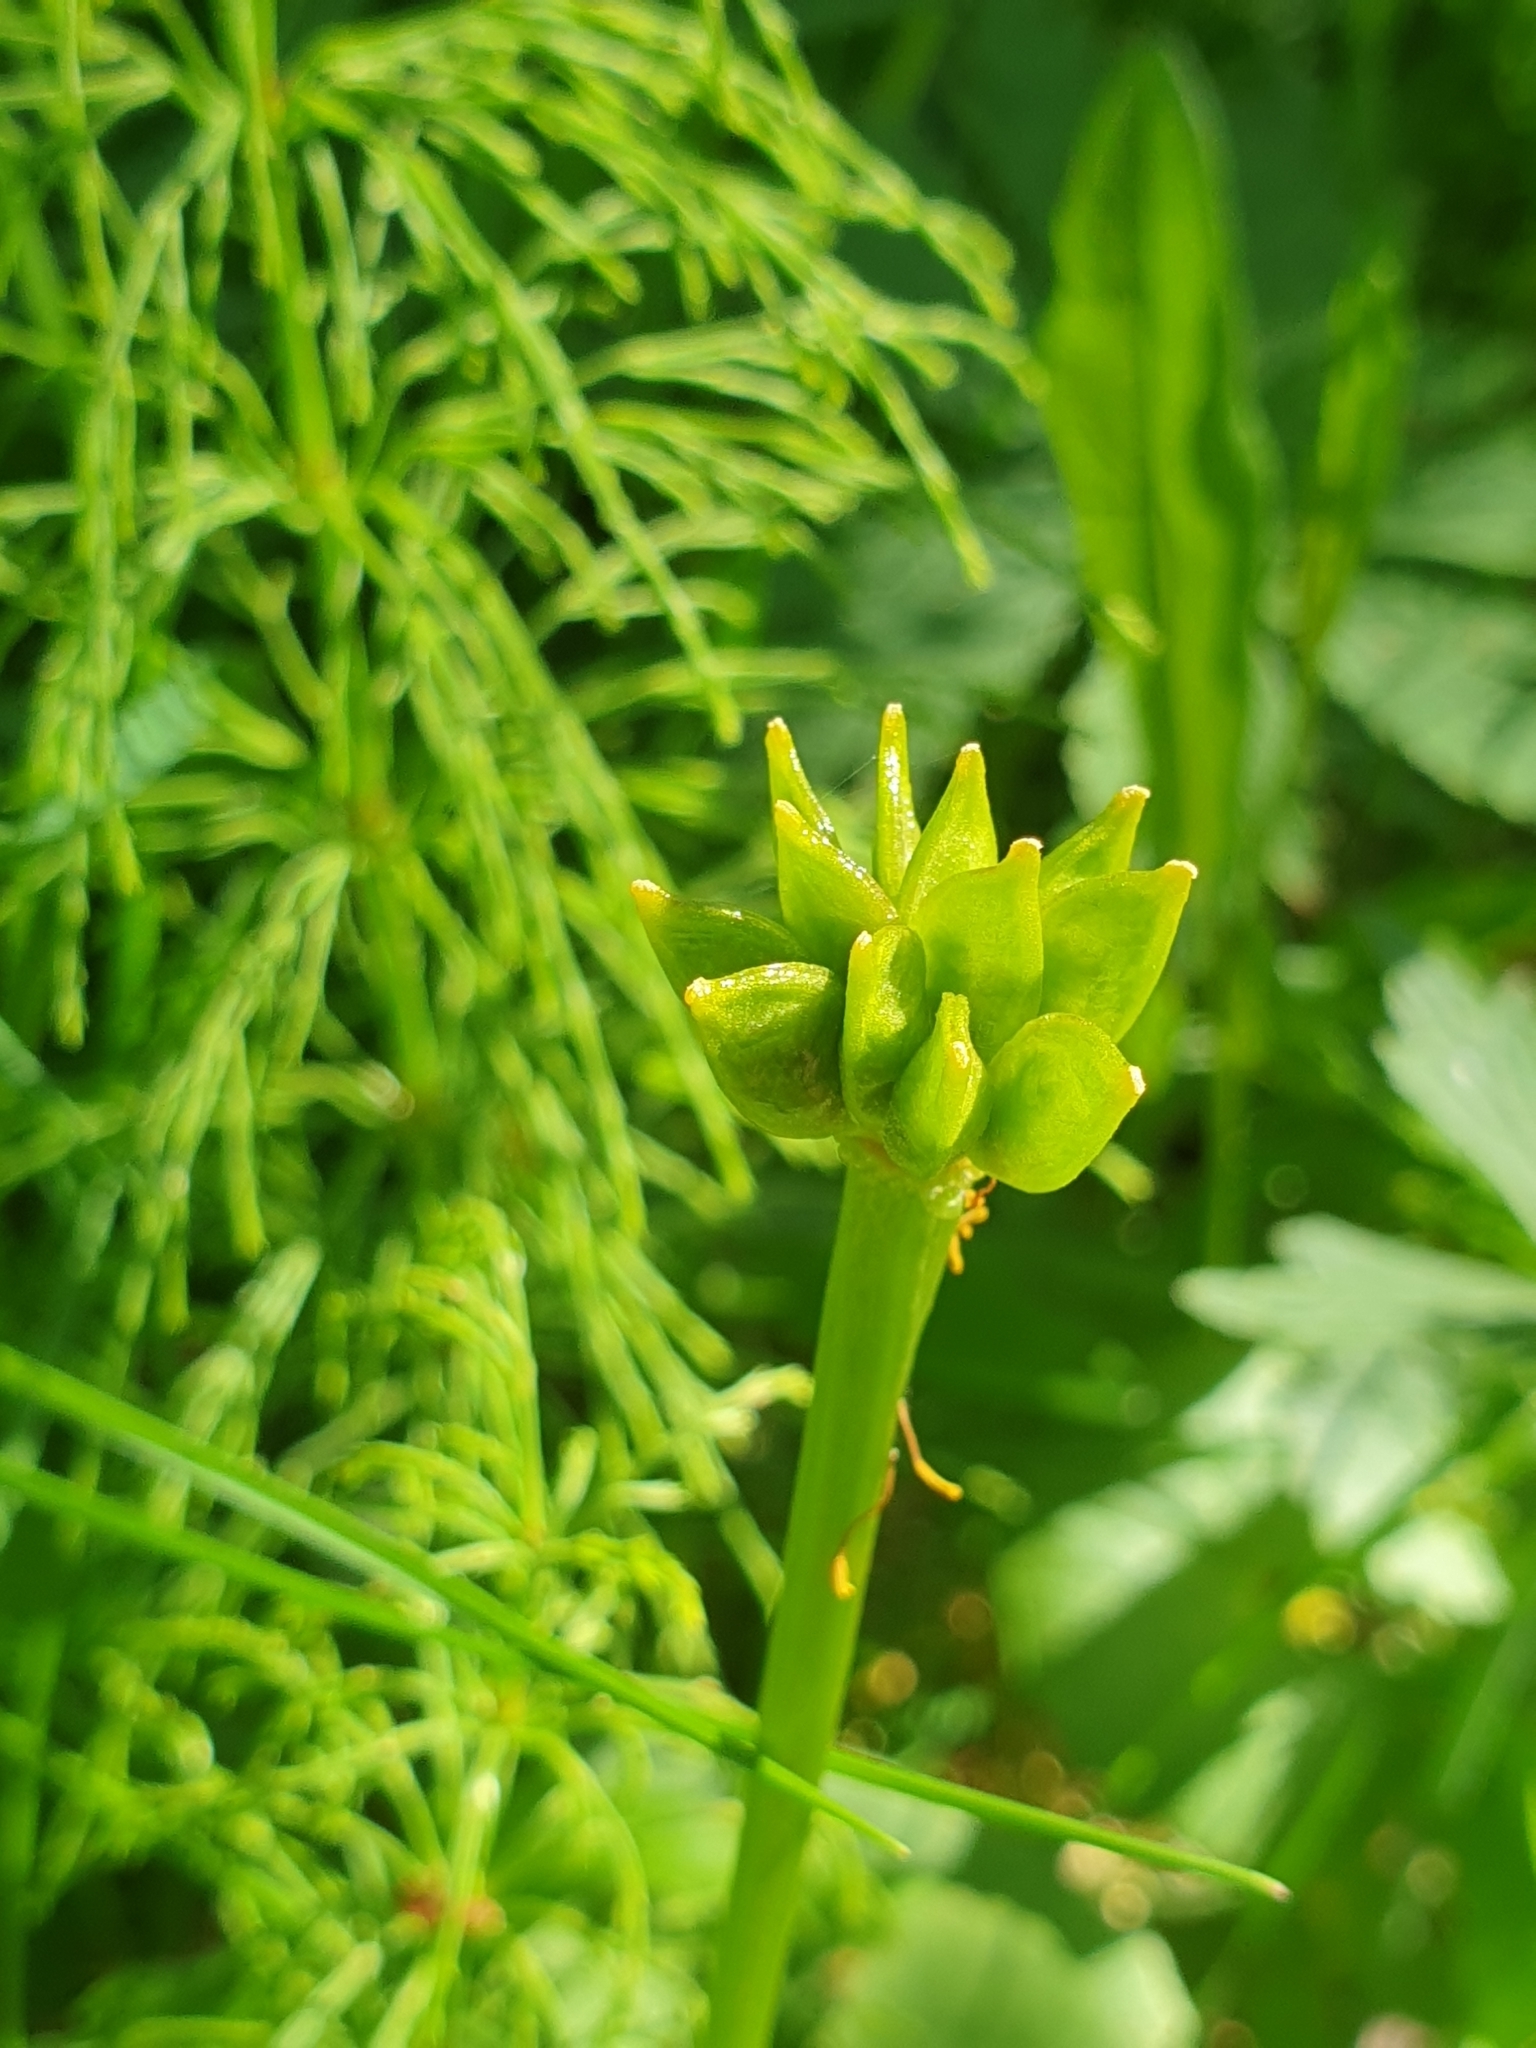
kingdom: Plantae
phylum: Tracheophyta
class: Magnoliopsida
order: Ranunculales
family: Ranunculaceae
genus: Caltha
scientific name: Caltha palustris
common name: Marsh marigold
